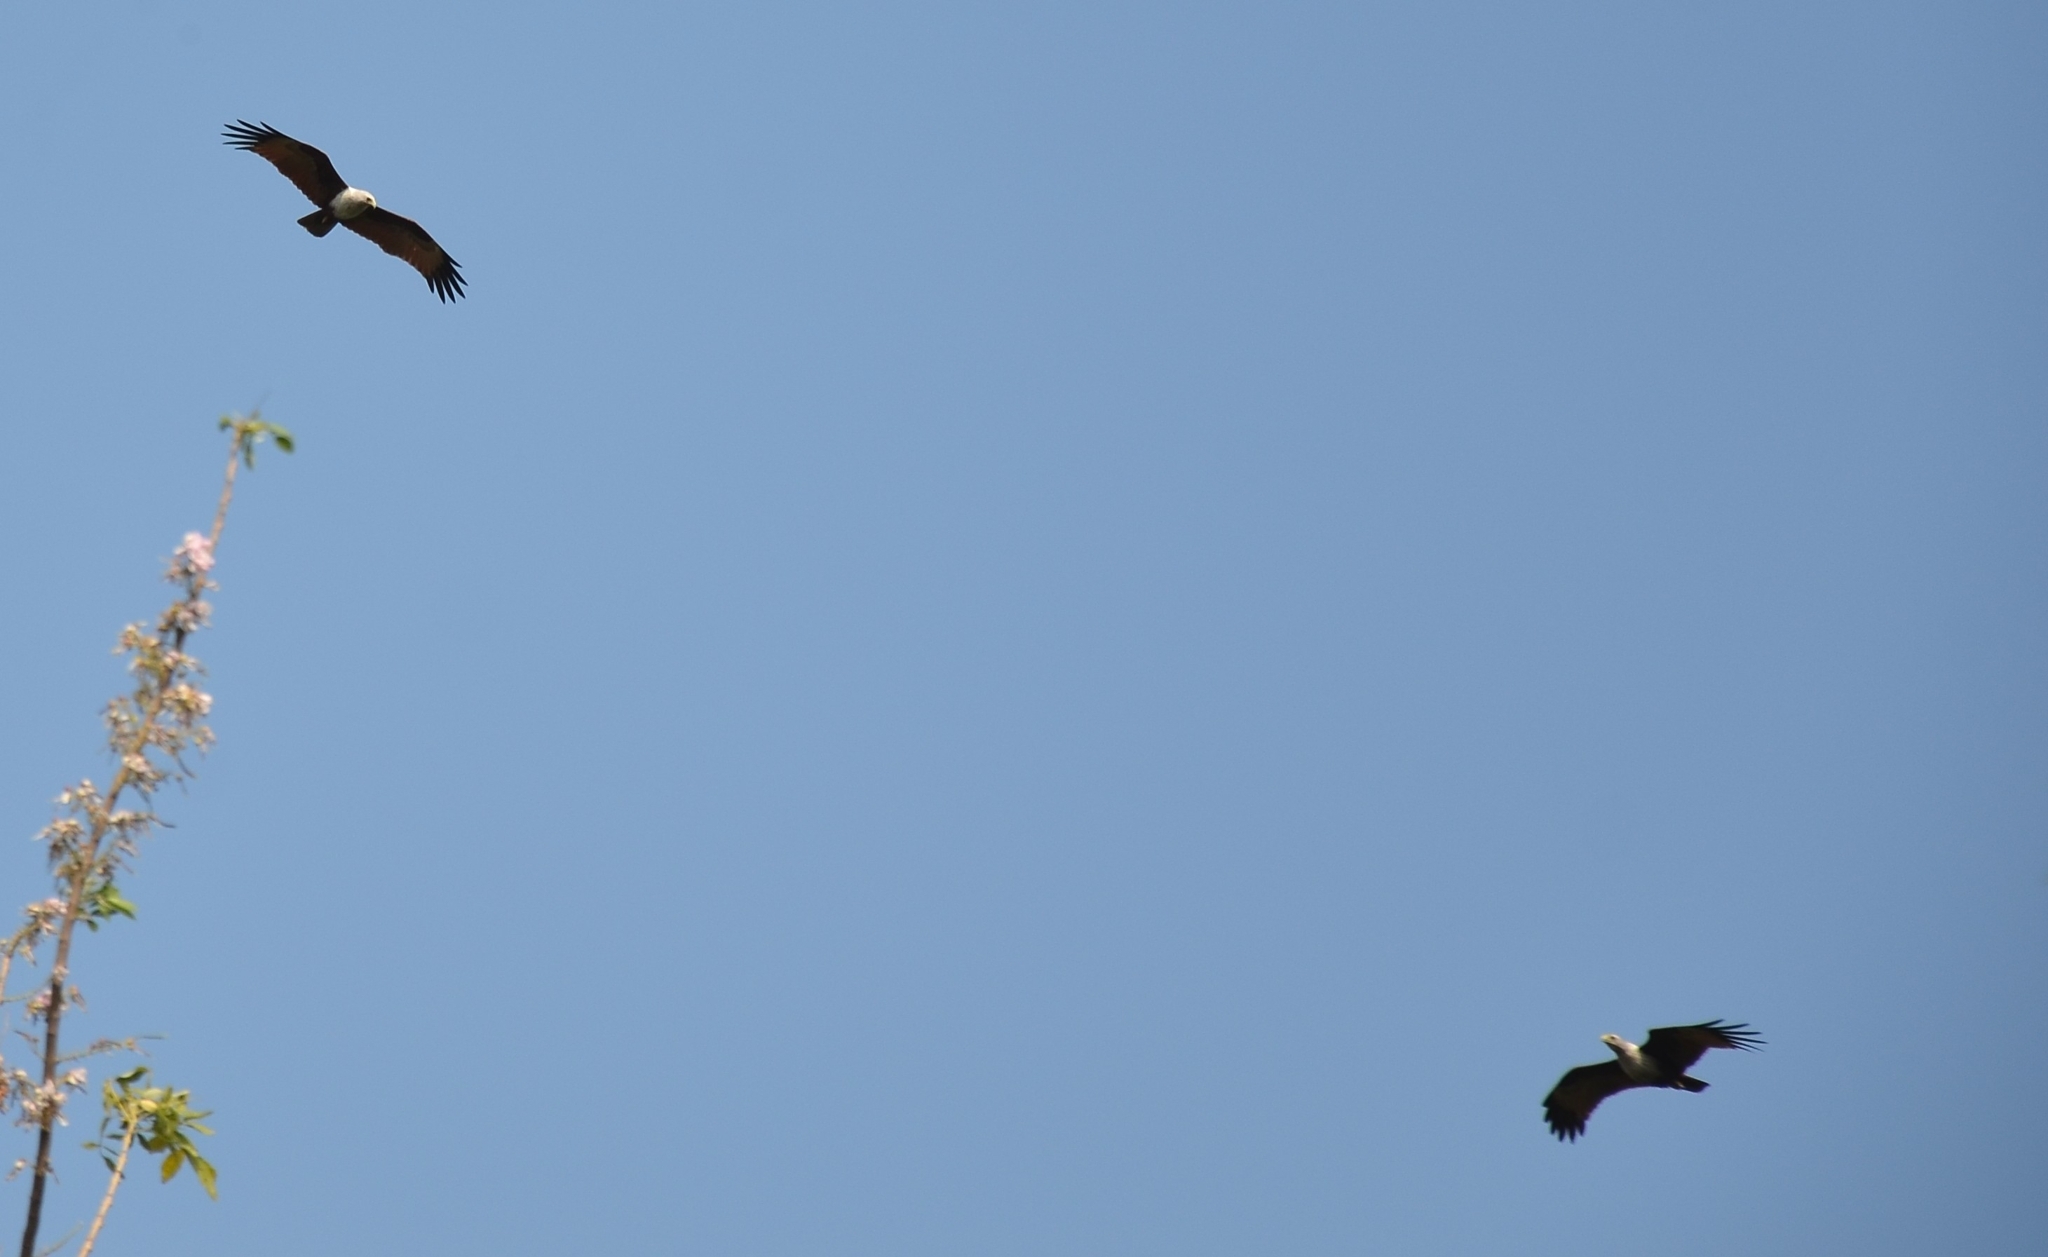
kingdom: Animalia
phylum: Chordata
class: Aves
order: Accipitriformes
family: Accipitridae
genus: Haliastur
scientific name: Haliastur indus
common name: Brahminy kite
